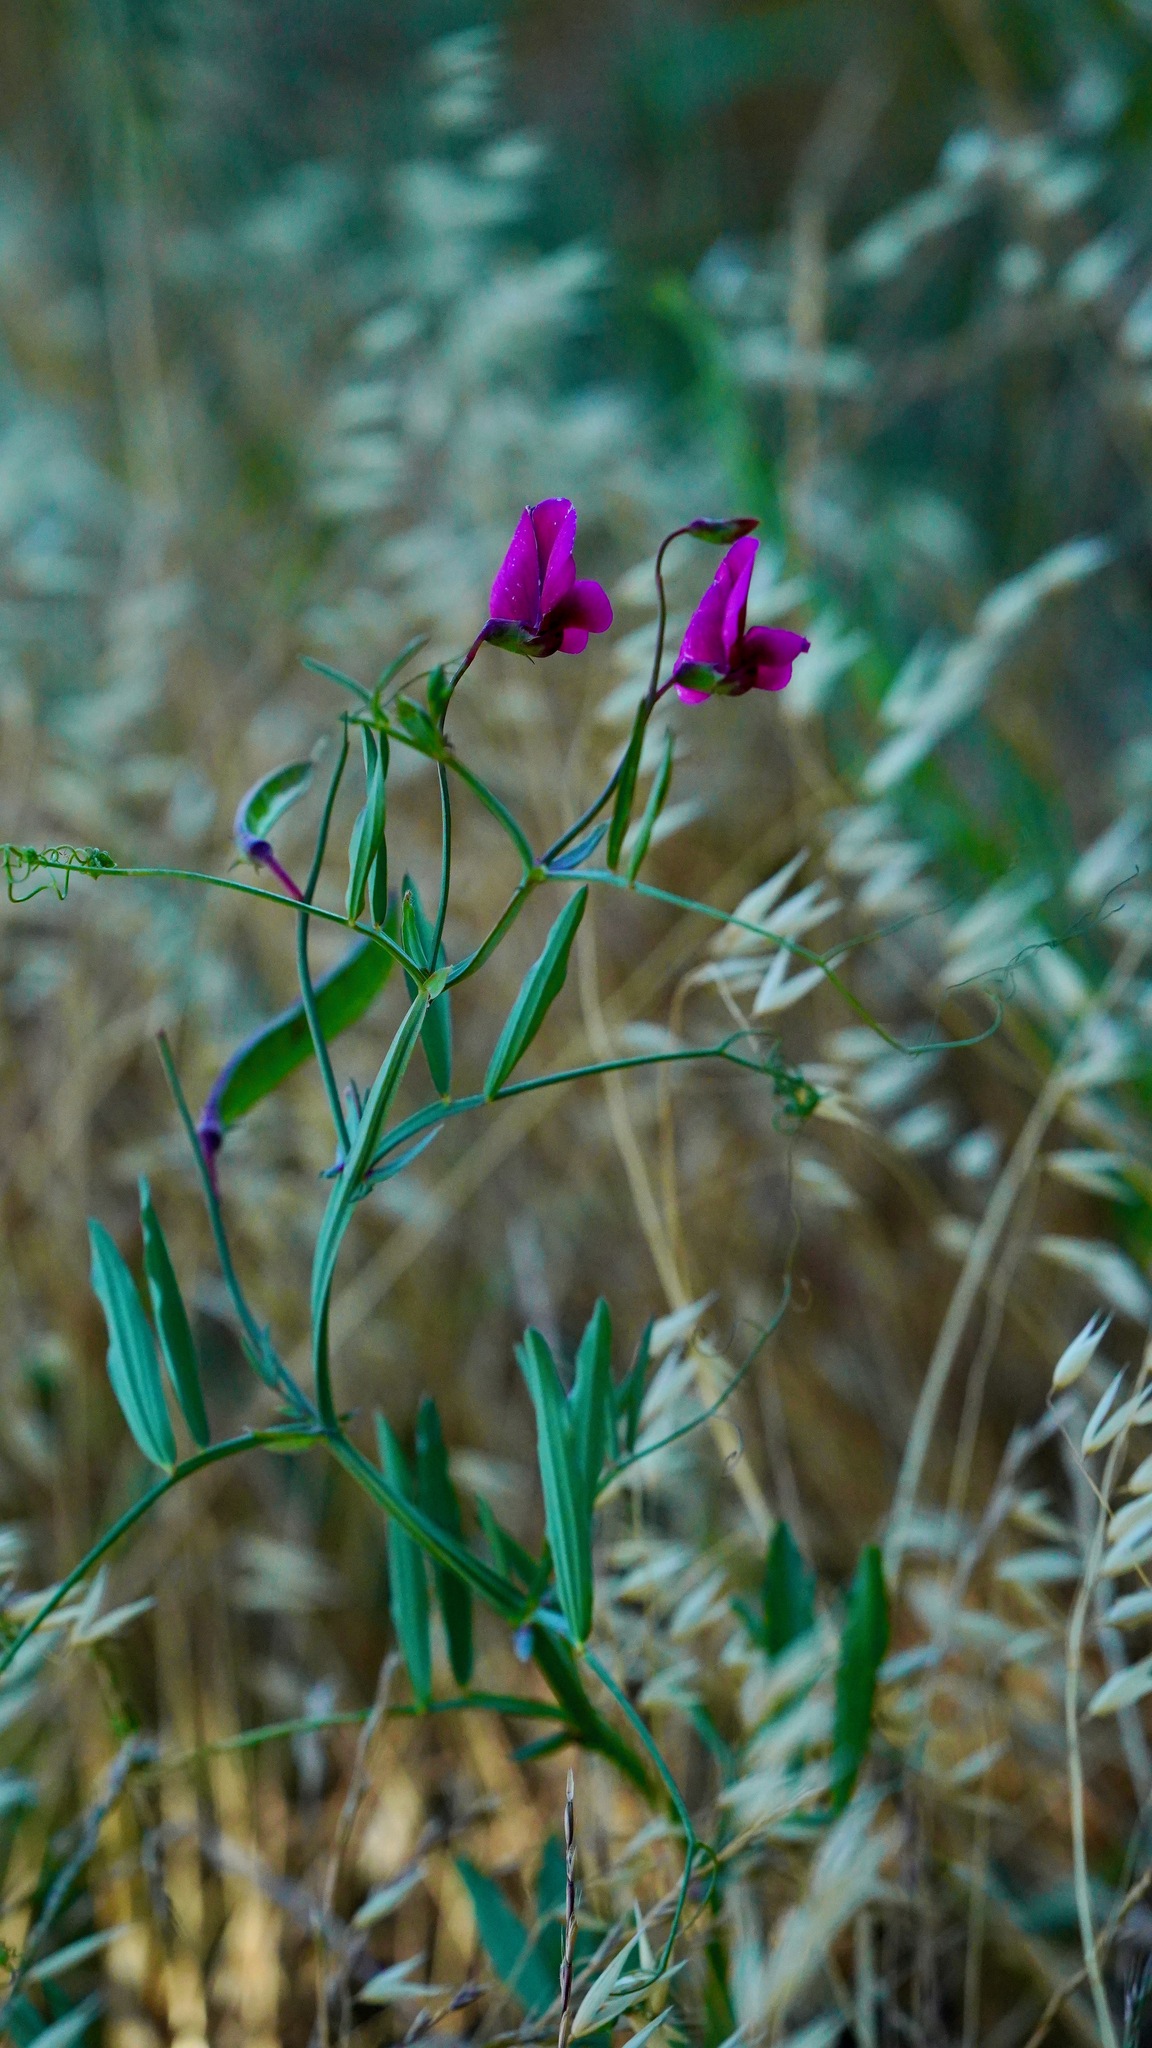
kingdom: Plantae
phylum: Tracheophyta
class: Magnoliopsida
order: Fabales
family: Fabaceae
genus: Lathyrus
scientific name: Lathyrus tingitanus
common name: Tangier pea
